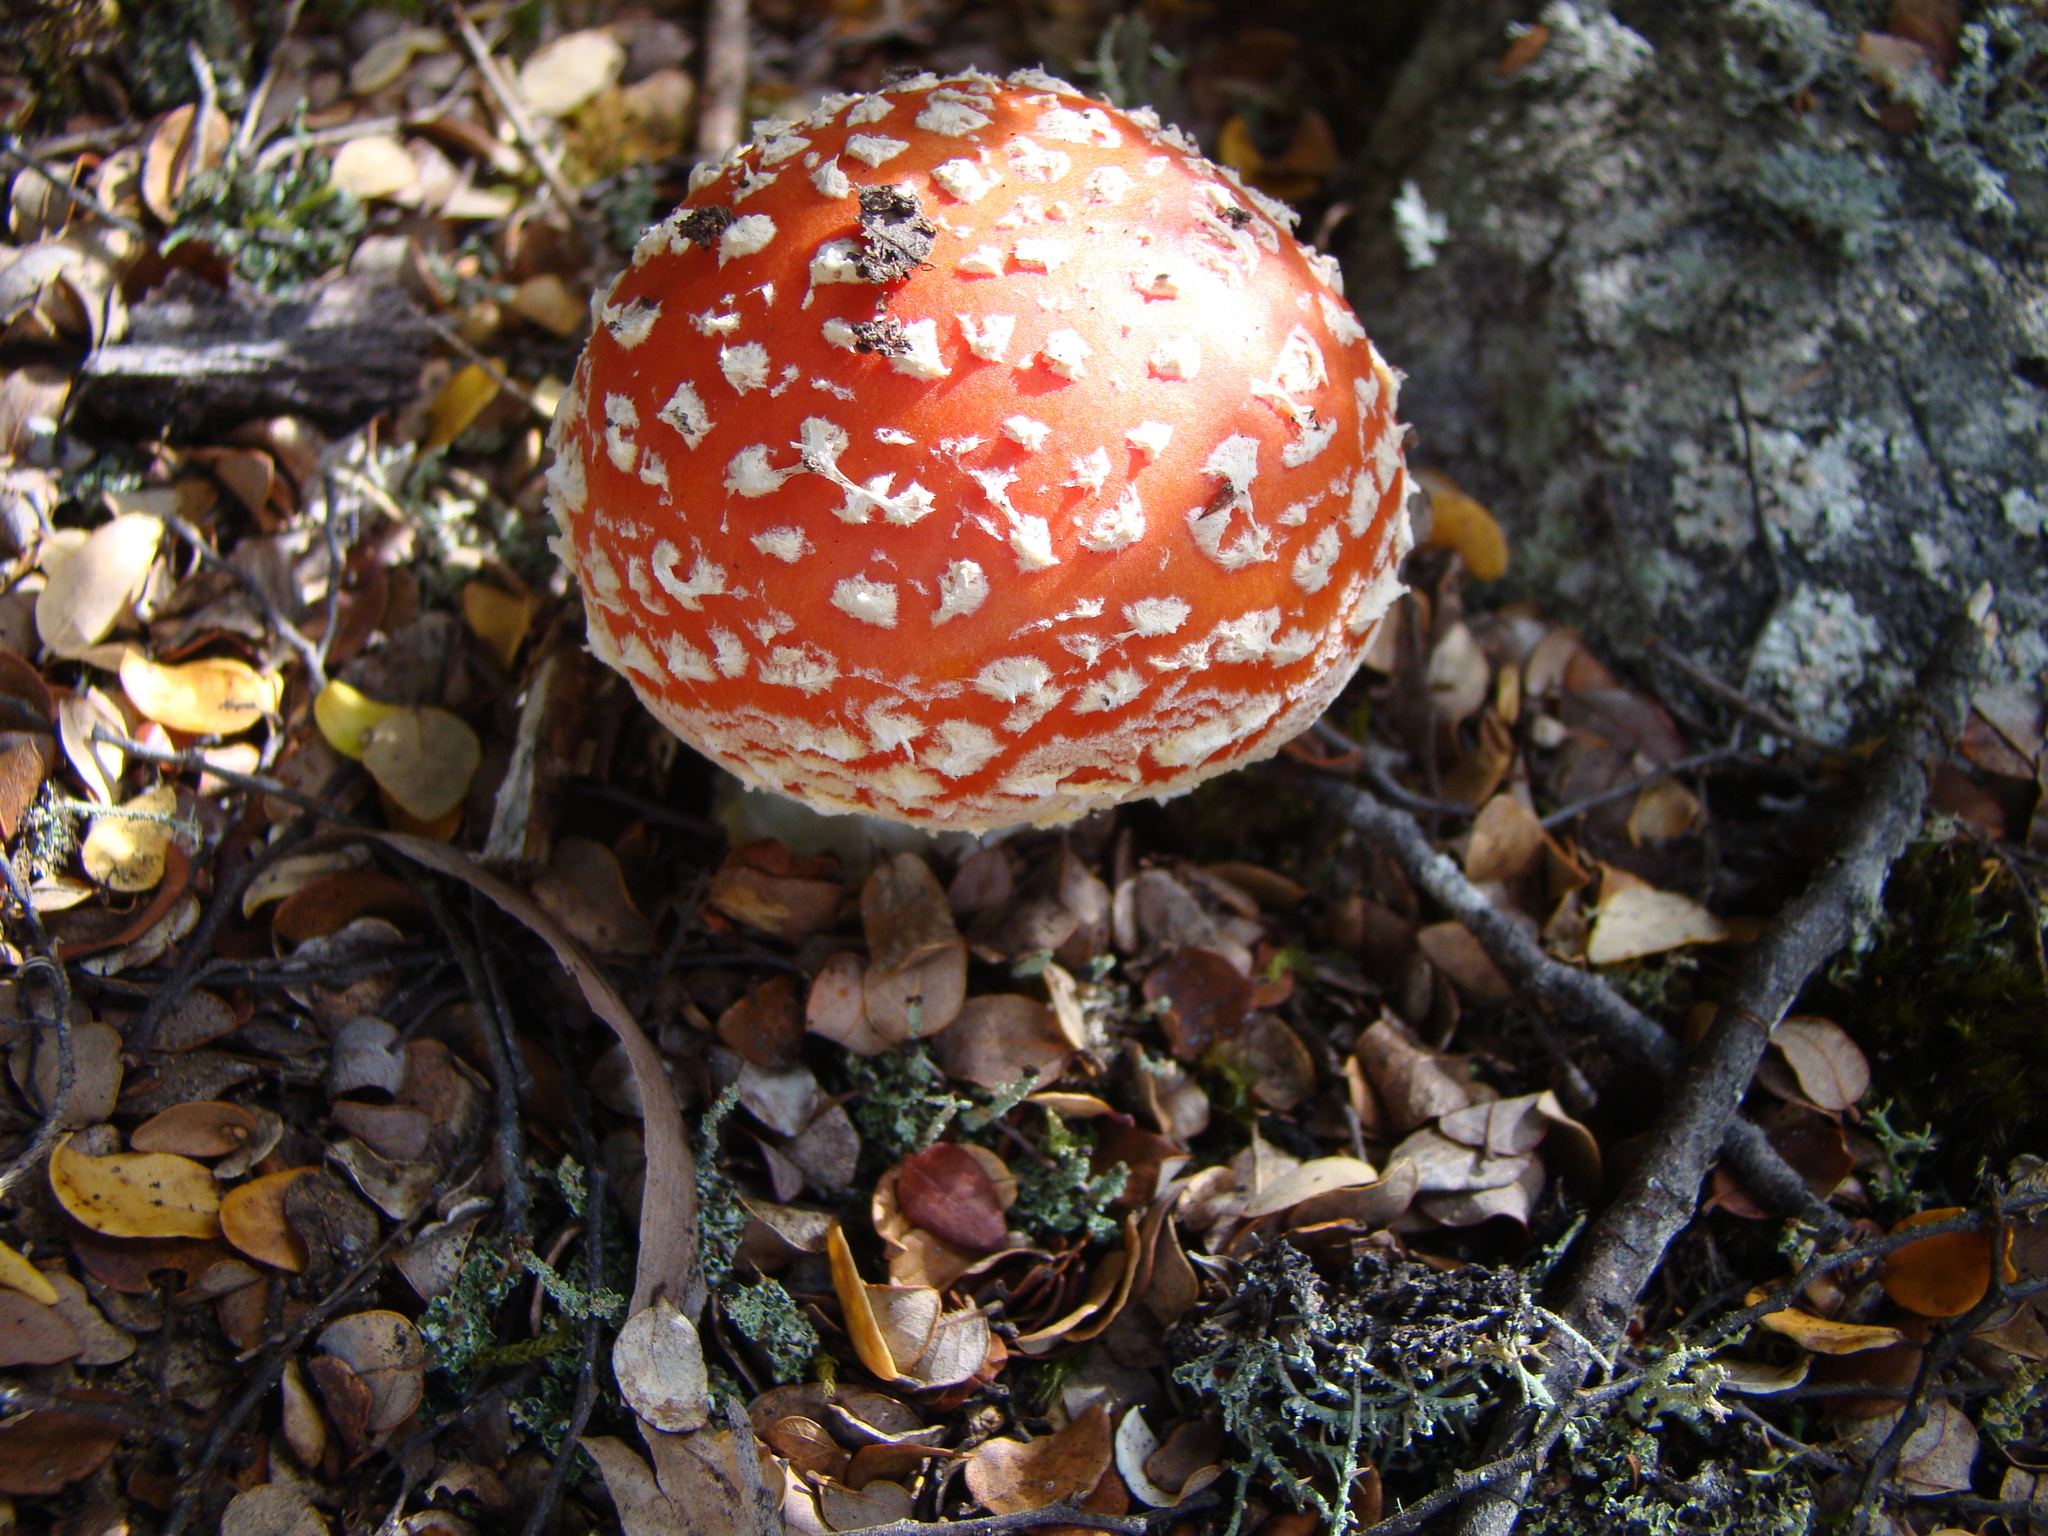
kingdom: Fungi
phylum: Basidiomycota
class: Agaricomycetes
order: Agaricales
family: Amanitaceae
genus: Amanita
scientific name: Amanita muscaria
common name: Fly agaric
